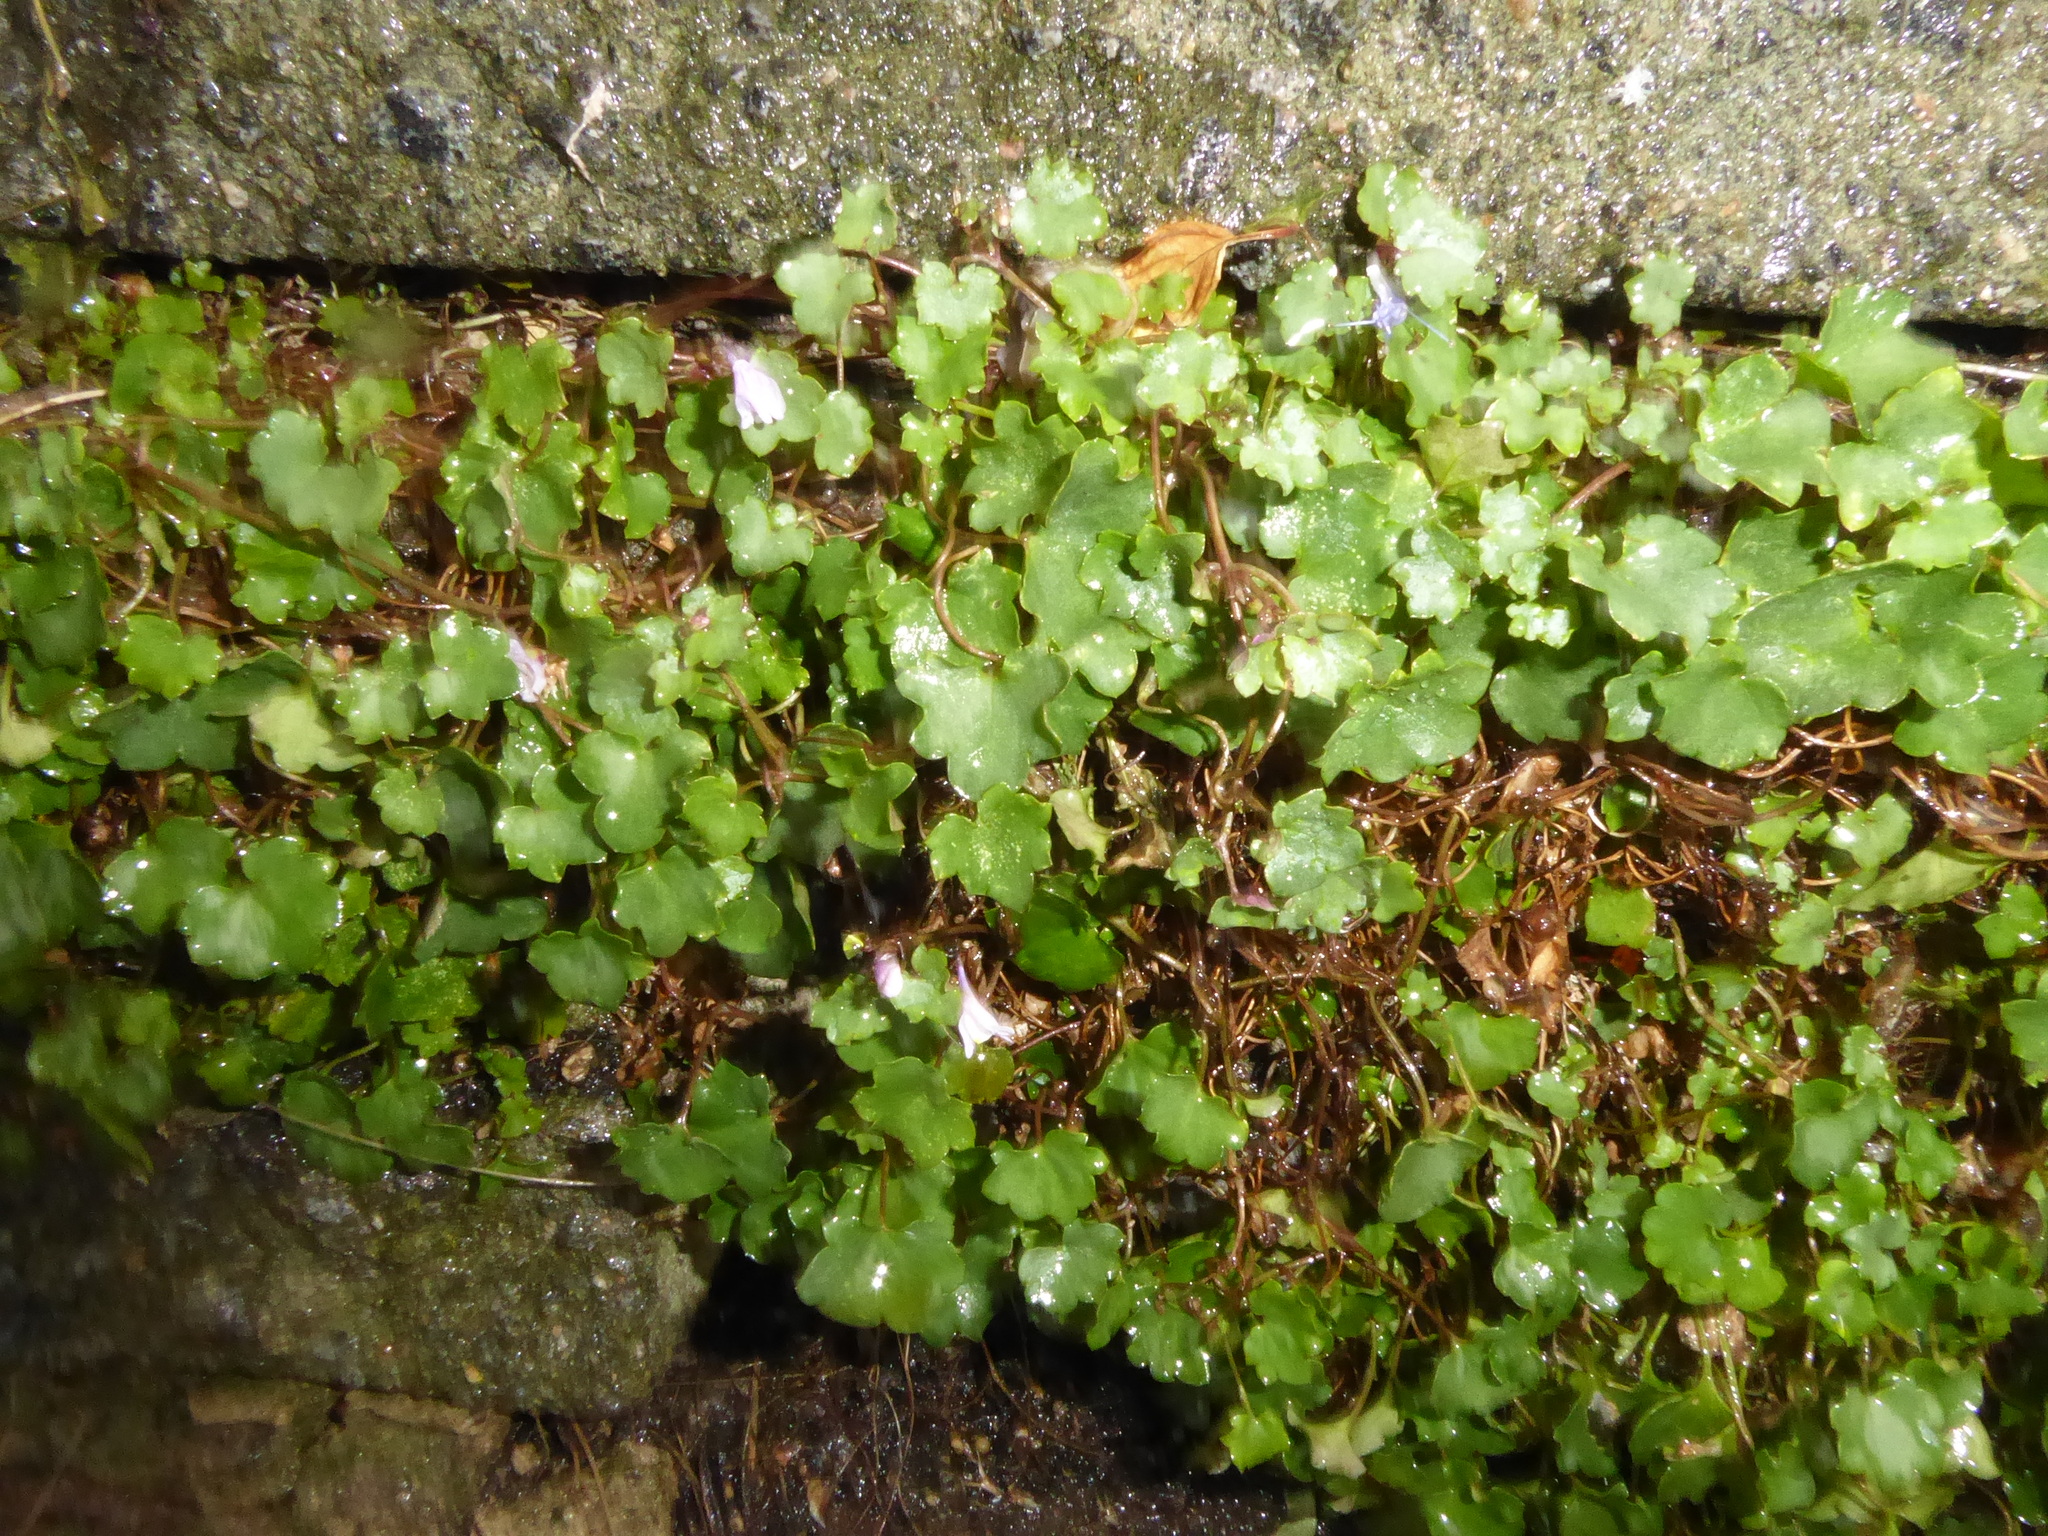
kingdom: Plantae
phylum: Tracheophyta
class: Magnoliopsida
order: Lamiales
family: Plantaginaceae
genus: Cymbalaria
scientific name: Cymbalaria muralis
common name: Ivy-leaved toadflax
